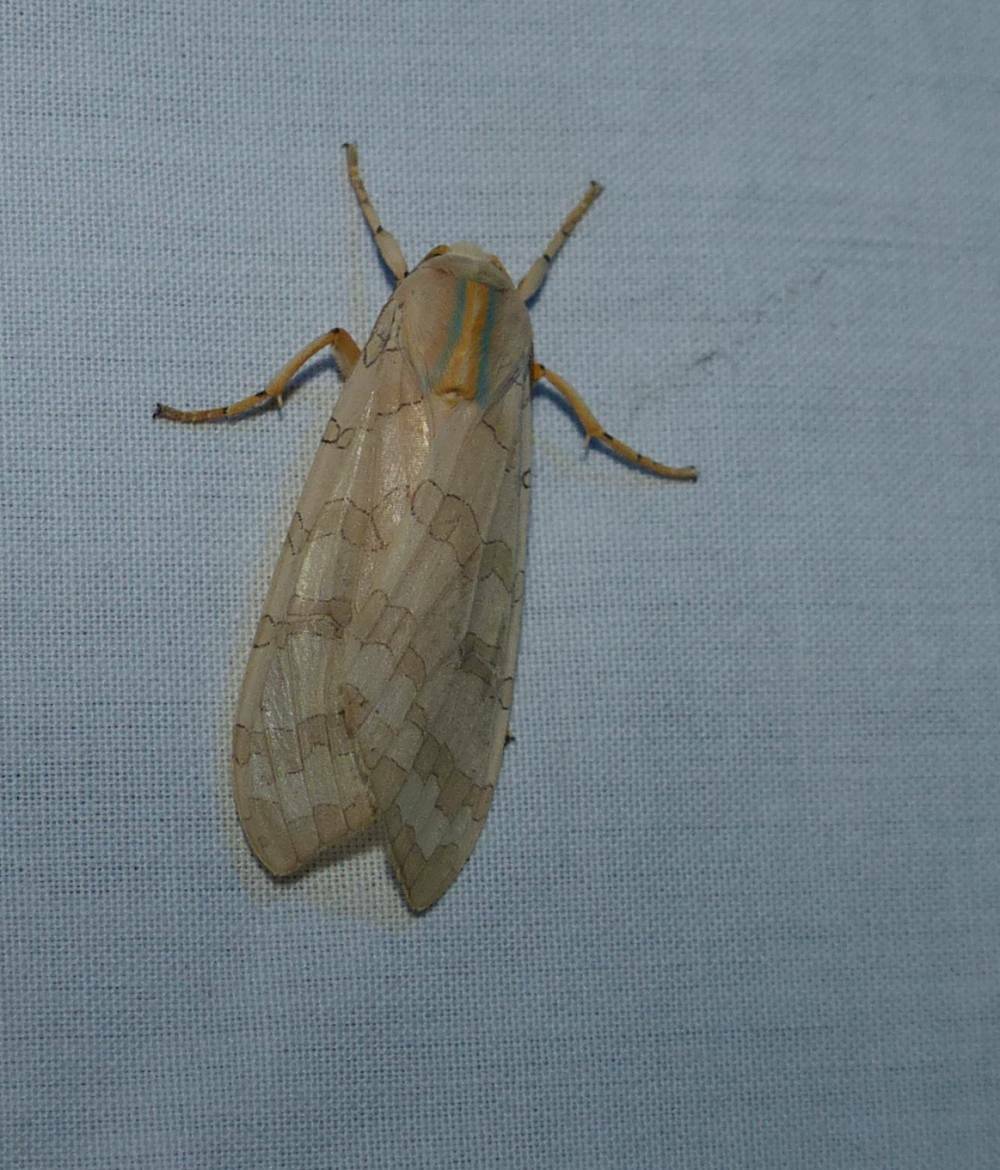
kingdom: Animalia
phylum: Arthropoda
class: Insecta
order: Lepidoptera
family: Erebidae
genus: Halysidota
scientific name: Halysidota tessellaris
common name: Banded tussock moth
